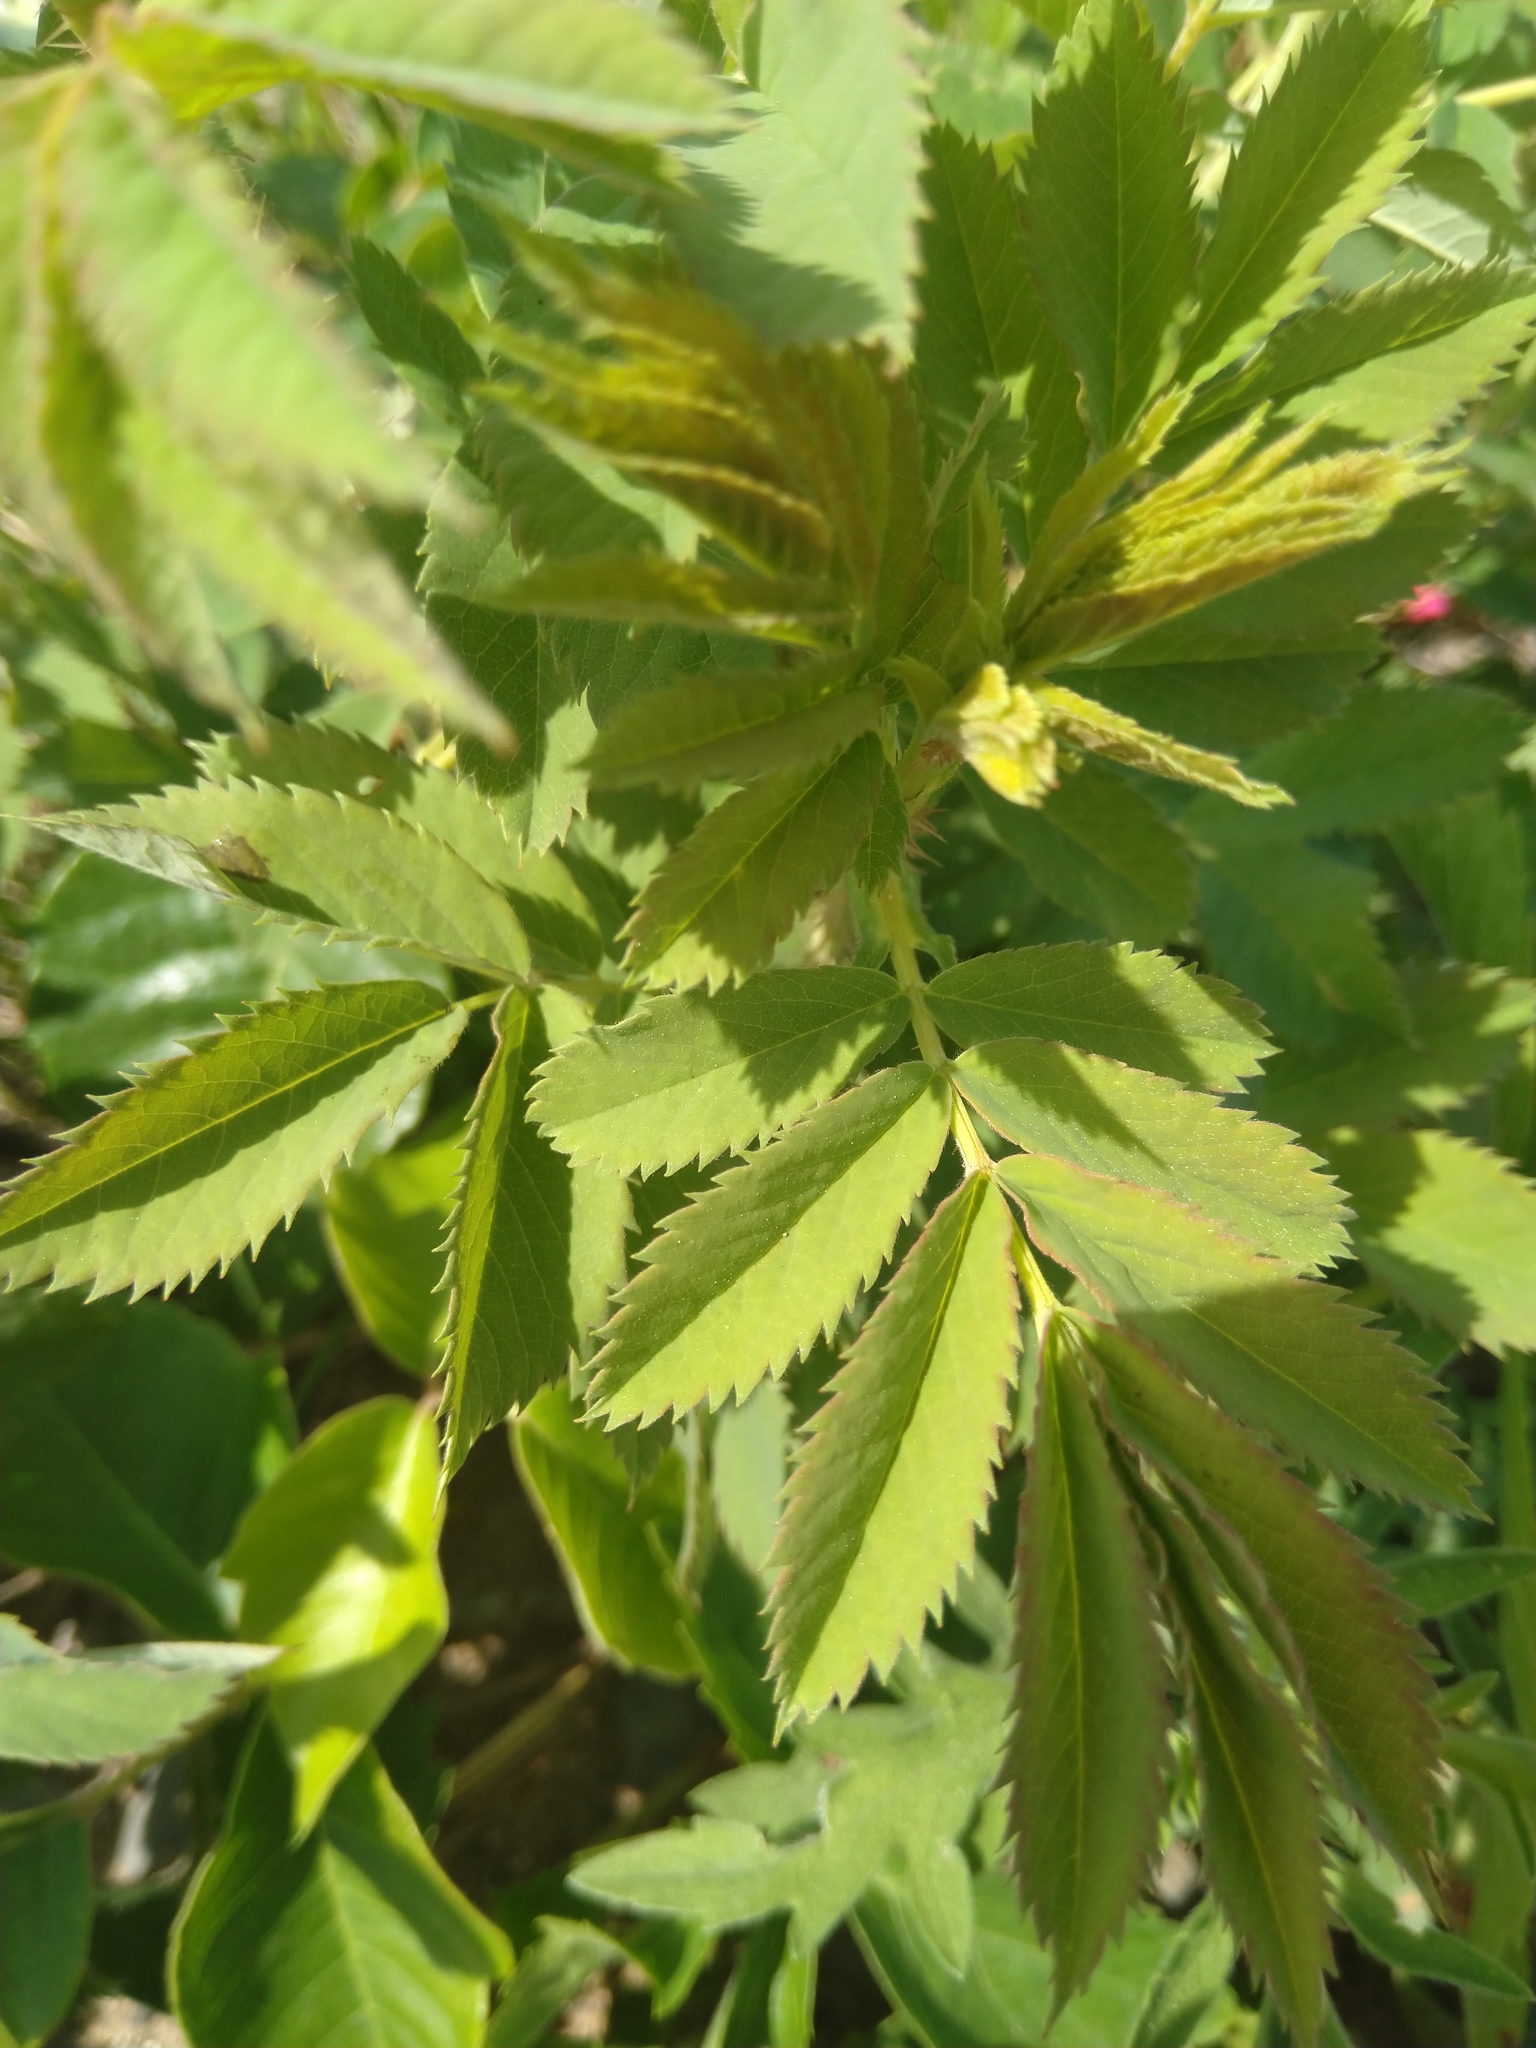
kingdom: Plantae
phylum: Tracheophyta
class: Magnoliopsida
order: Rosales
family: Rosaceae
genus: Rosa
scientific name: Rosa arkansana
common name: Prairie rose
